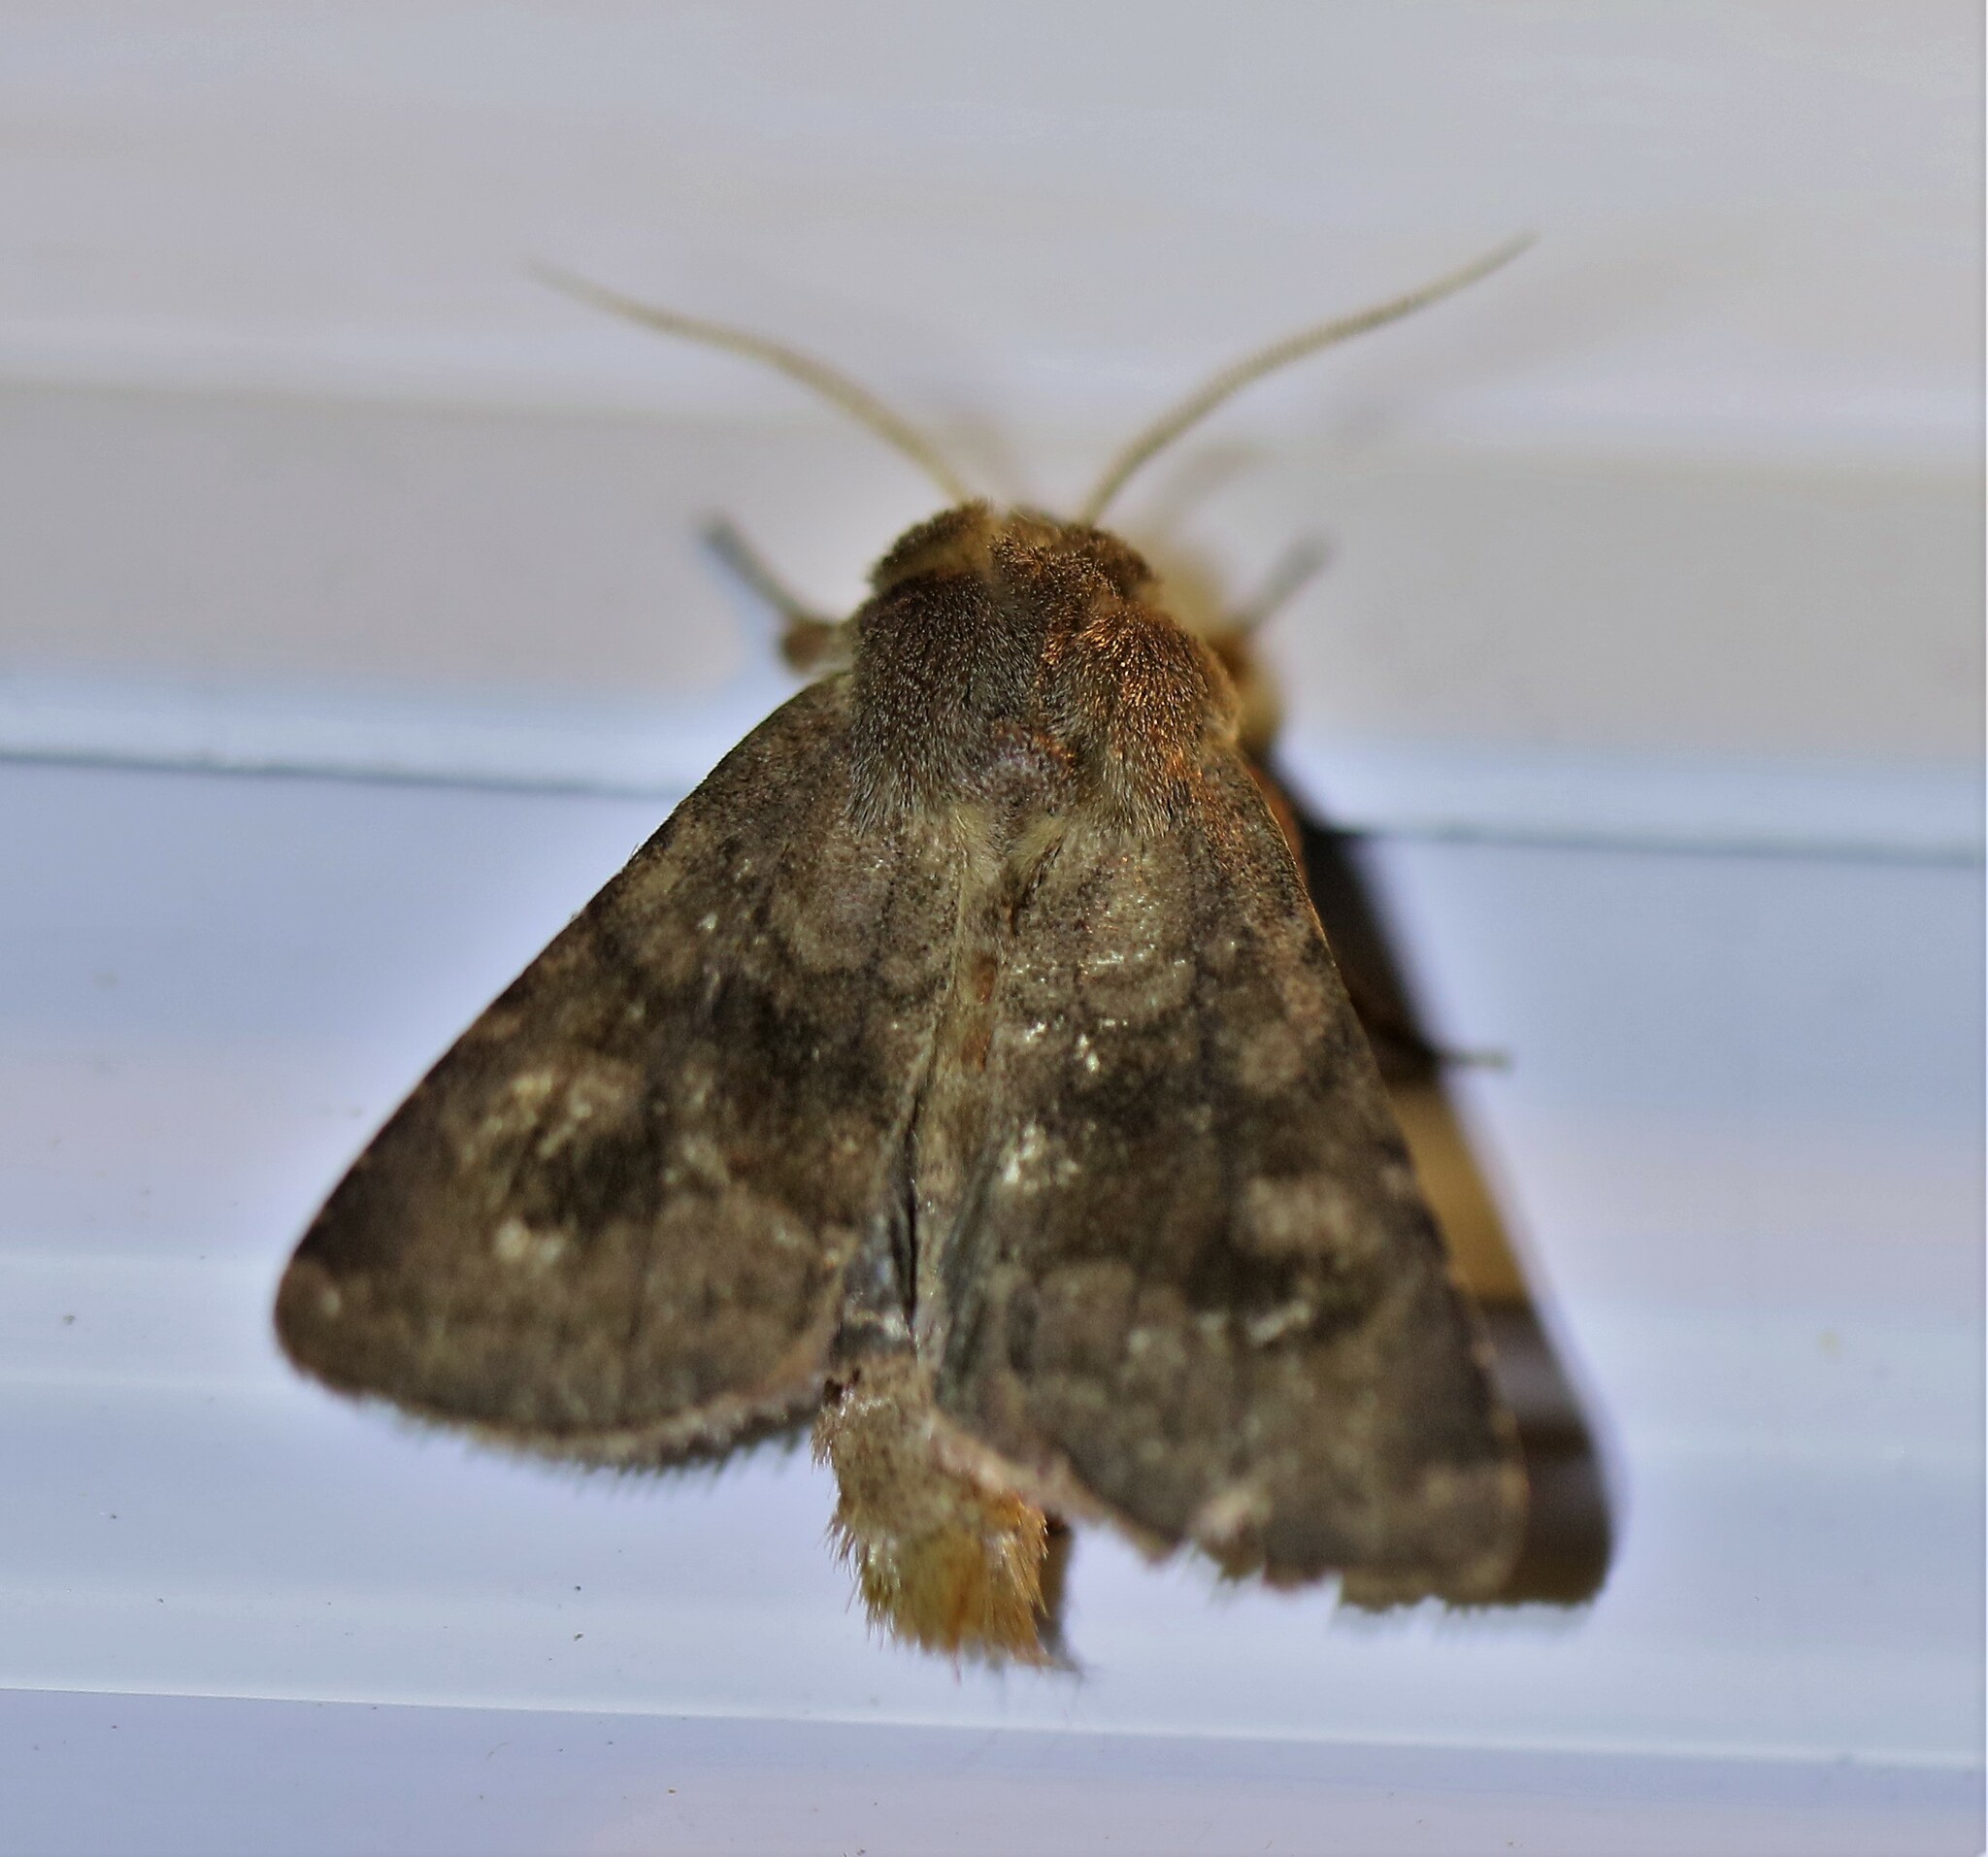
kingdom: Animalia
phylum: Arthropoda
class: Insecta
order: Lepidoptera
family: Noctuidae
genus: Nephelodes
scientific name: Nephelodes minians
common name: Bronzed cutworm
